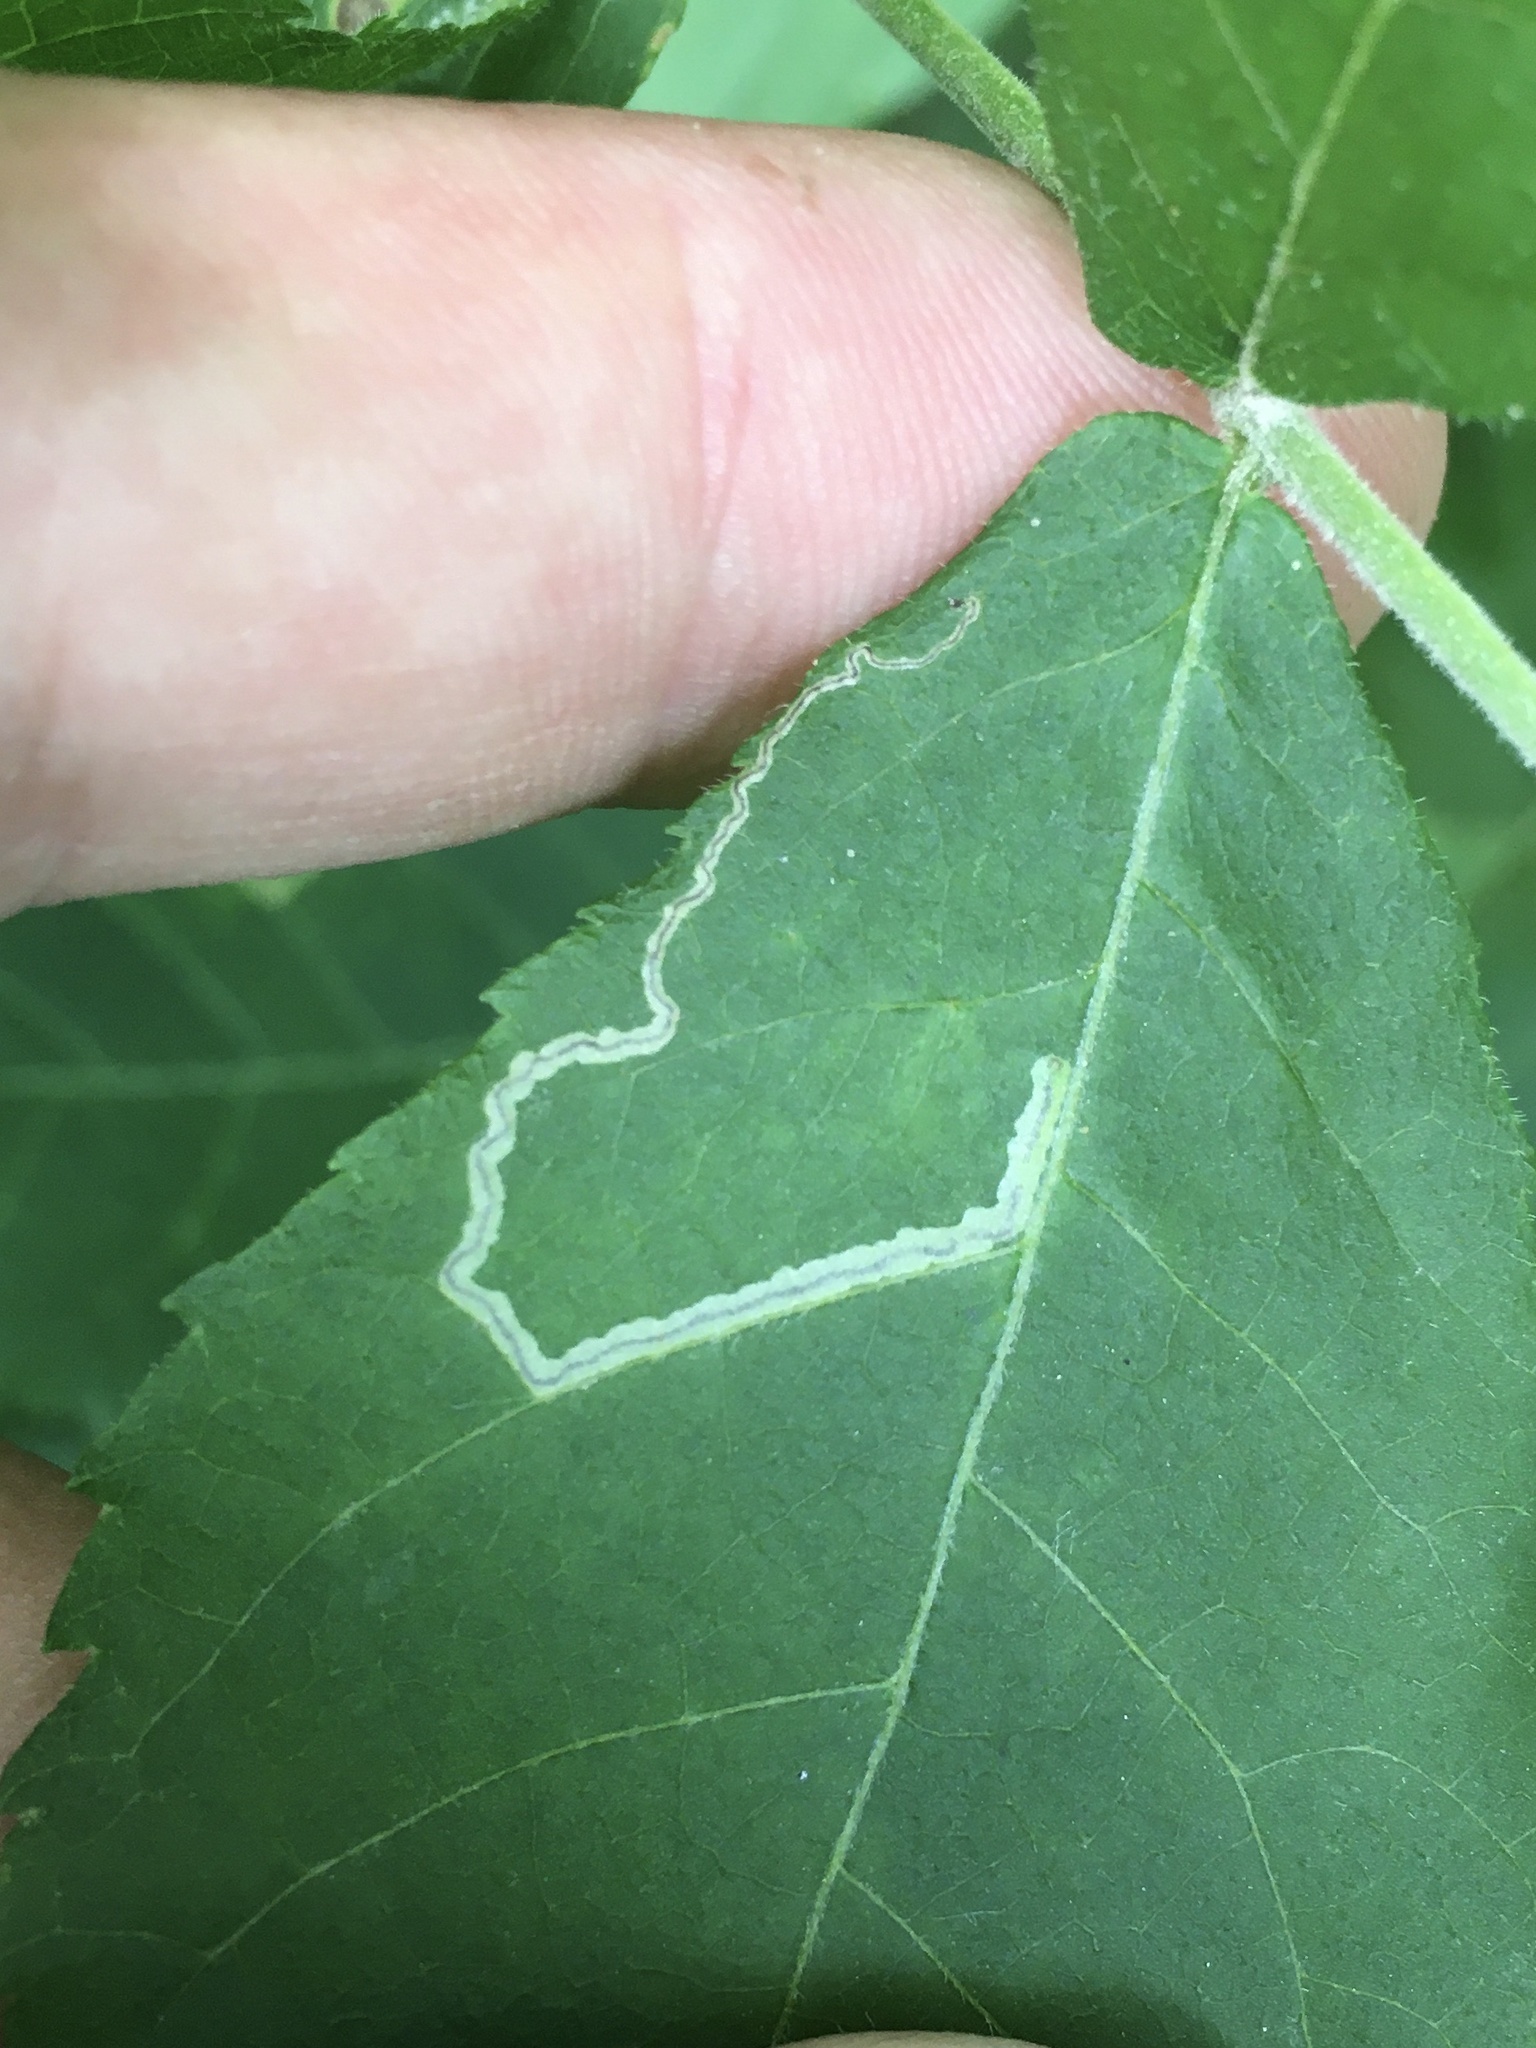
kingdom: Animalia
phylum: Arthropoda
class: Insecta
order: Lepidoptera
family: Nepticulidae
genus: Stigmella
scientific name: Stigmella caryaefoliella
